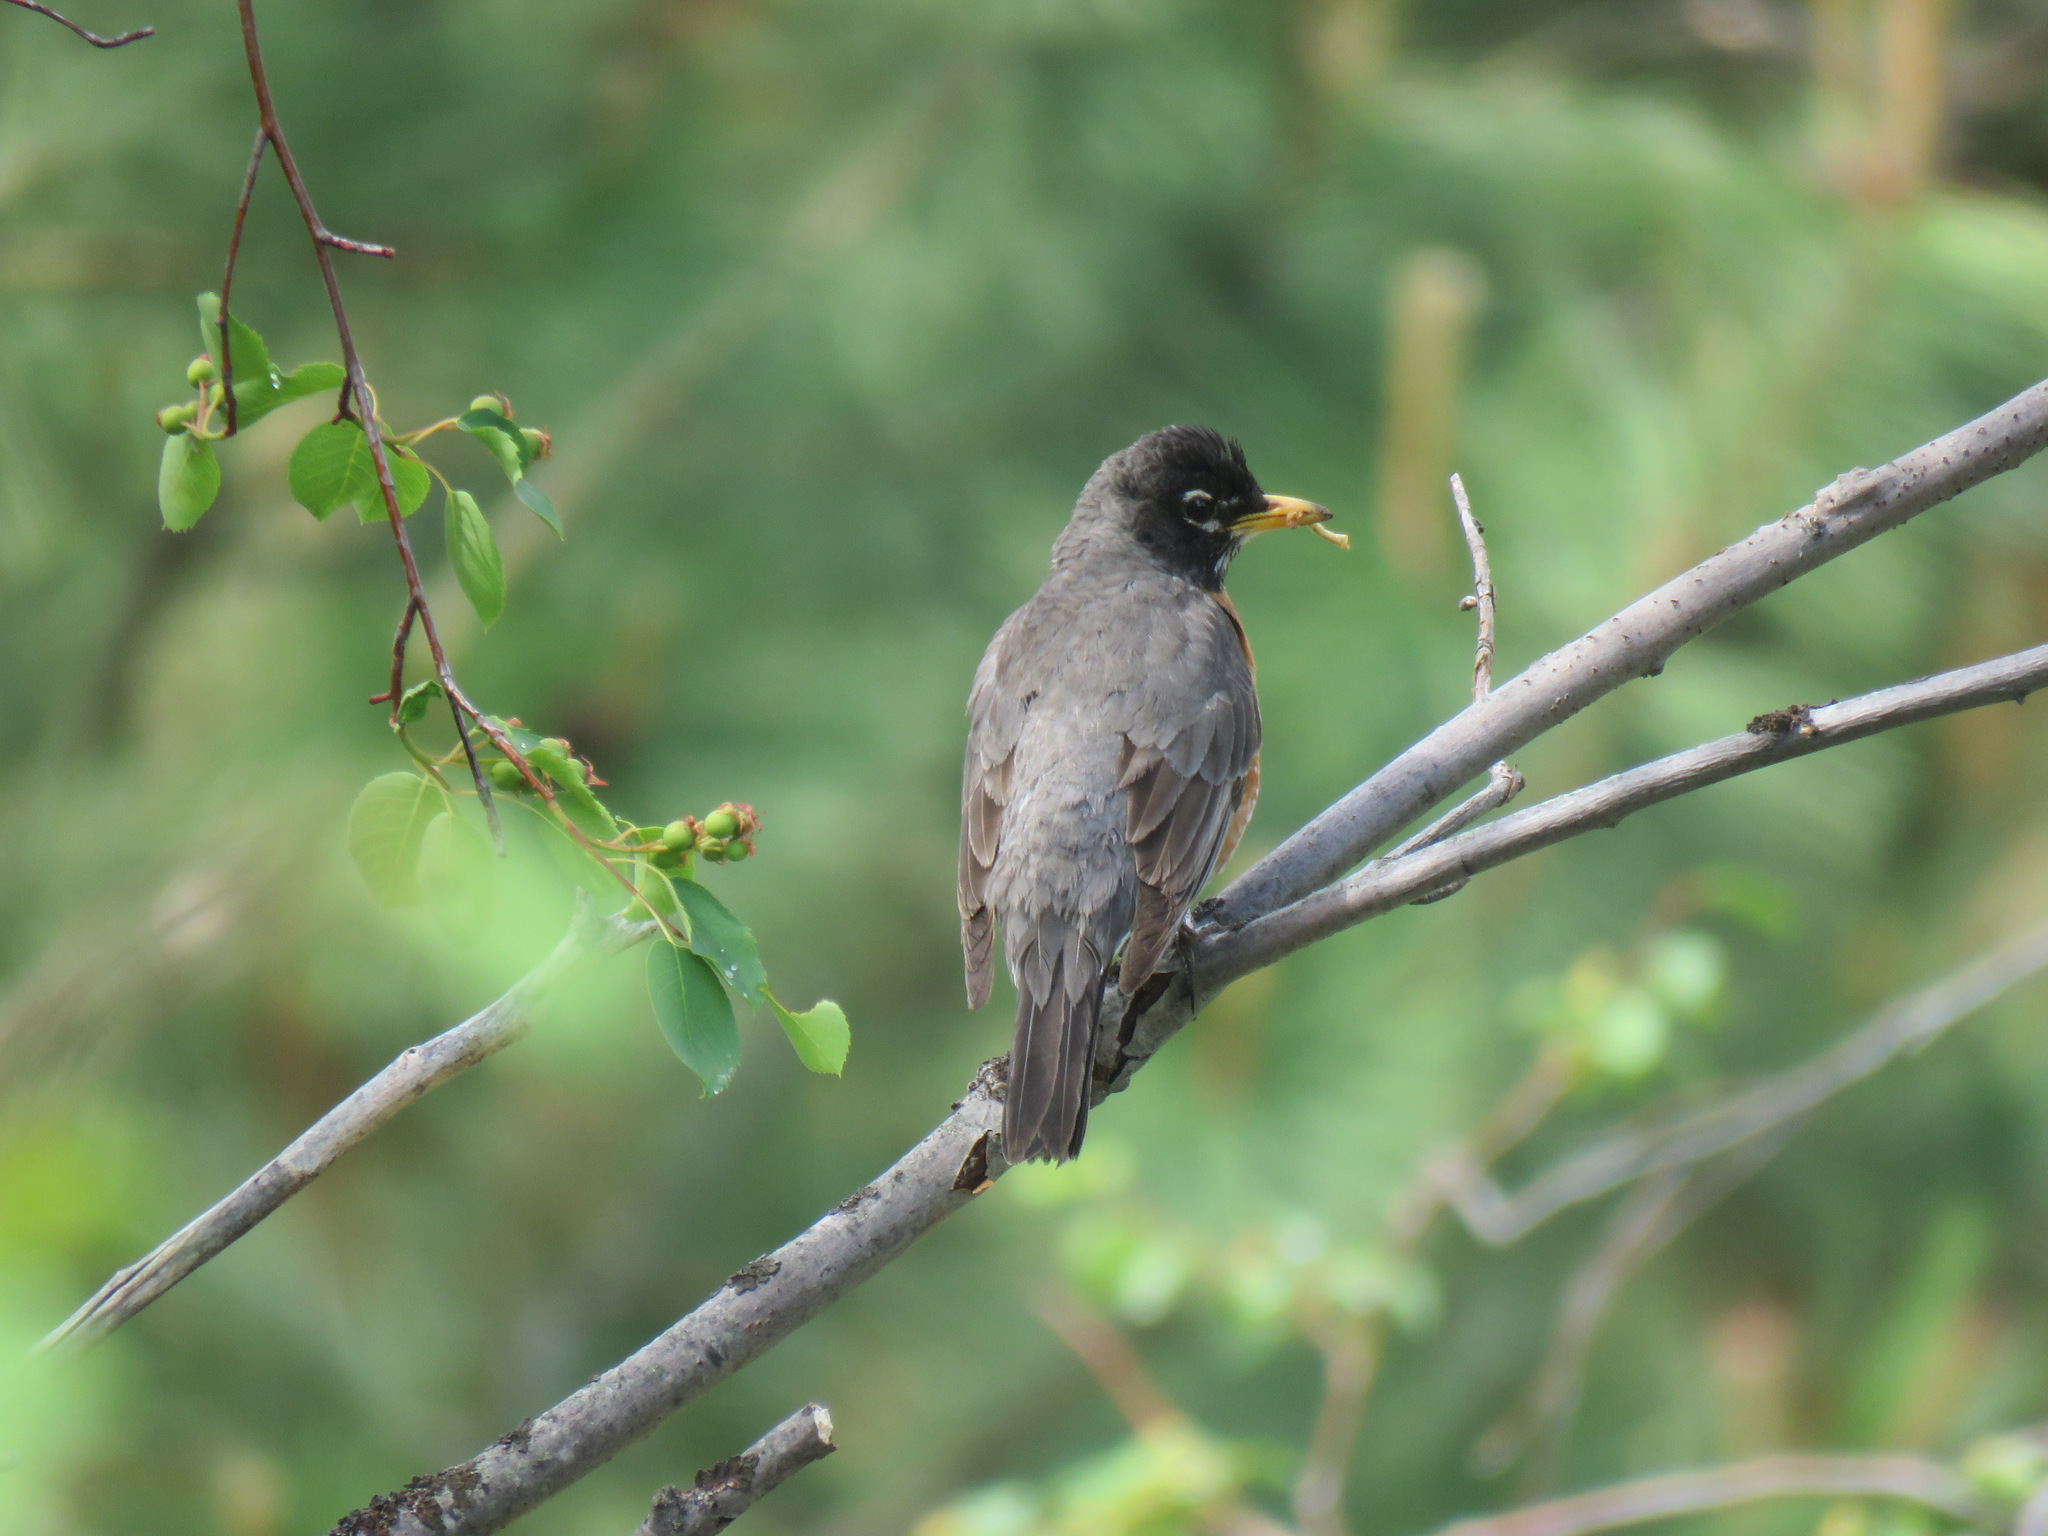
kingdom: Animalia
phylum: Chordata
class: Aves
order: Passeriformes
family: Turdidae
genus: Turdus
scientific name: Turdus migratorius
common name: American robin
